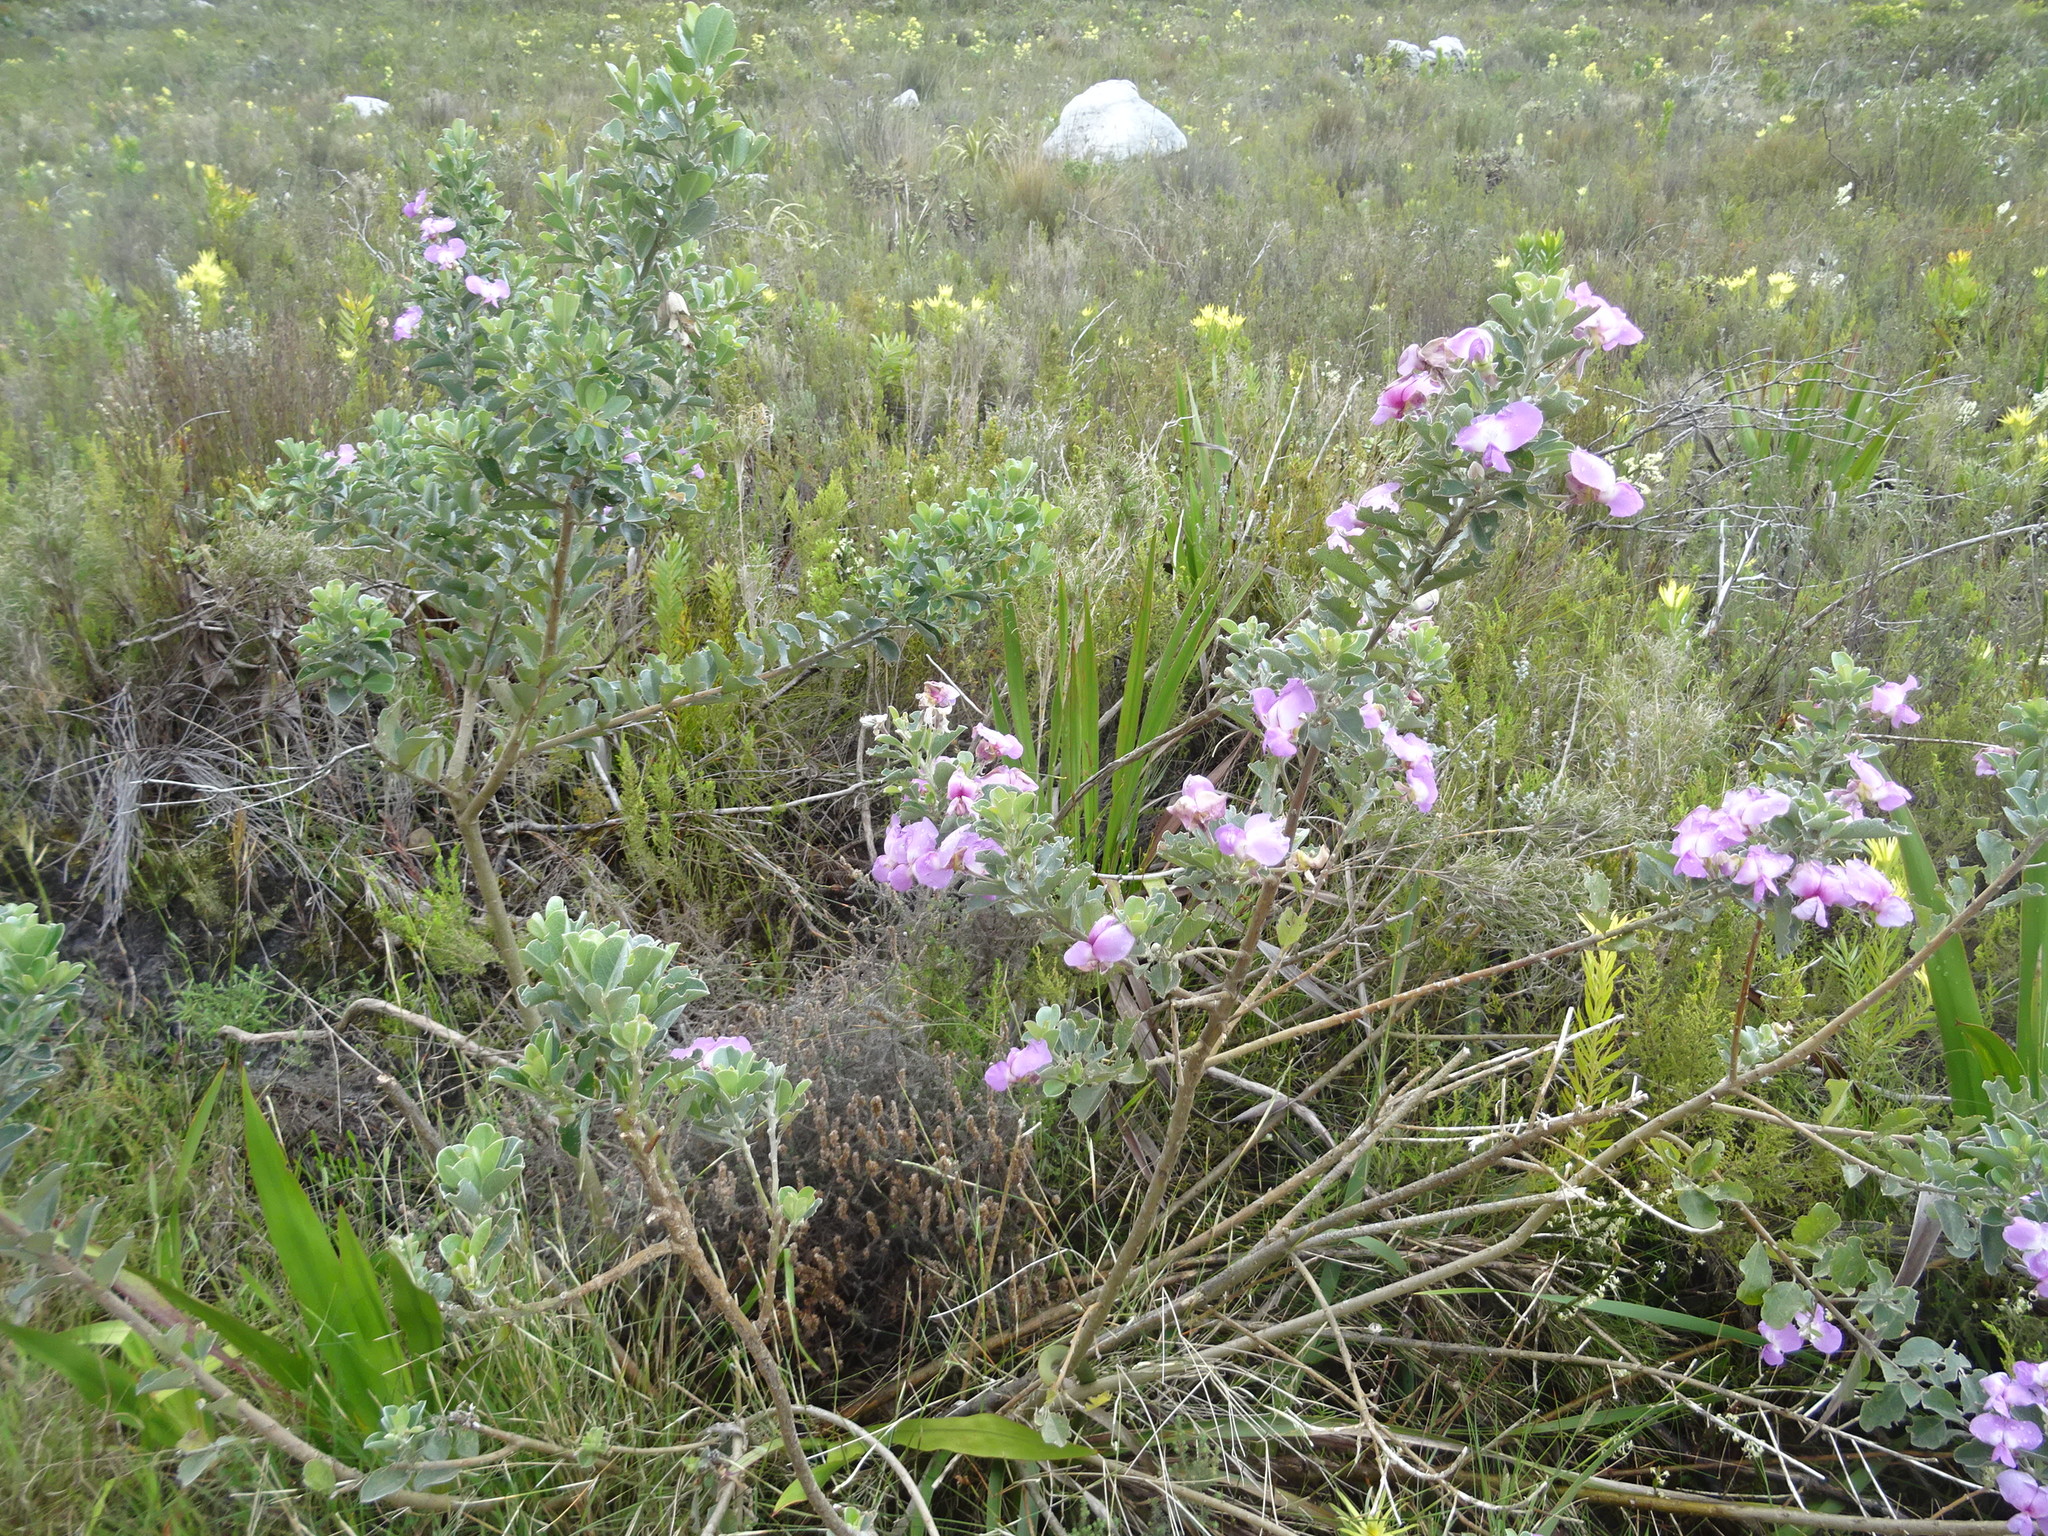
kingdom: Plantae
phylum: Tracheophyta
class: Magnoliopsida
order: Fabales
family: Fabaceae
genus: Podalyria
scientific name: Podalyria calyptrata
